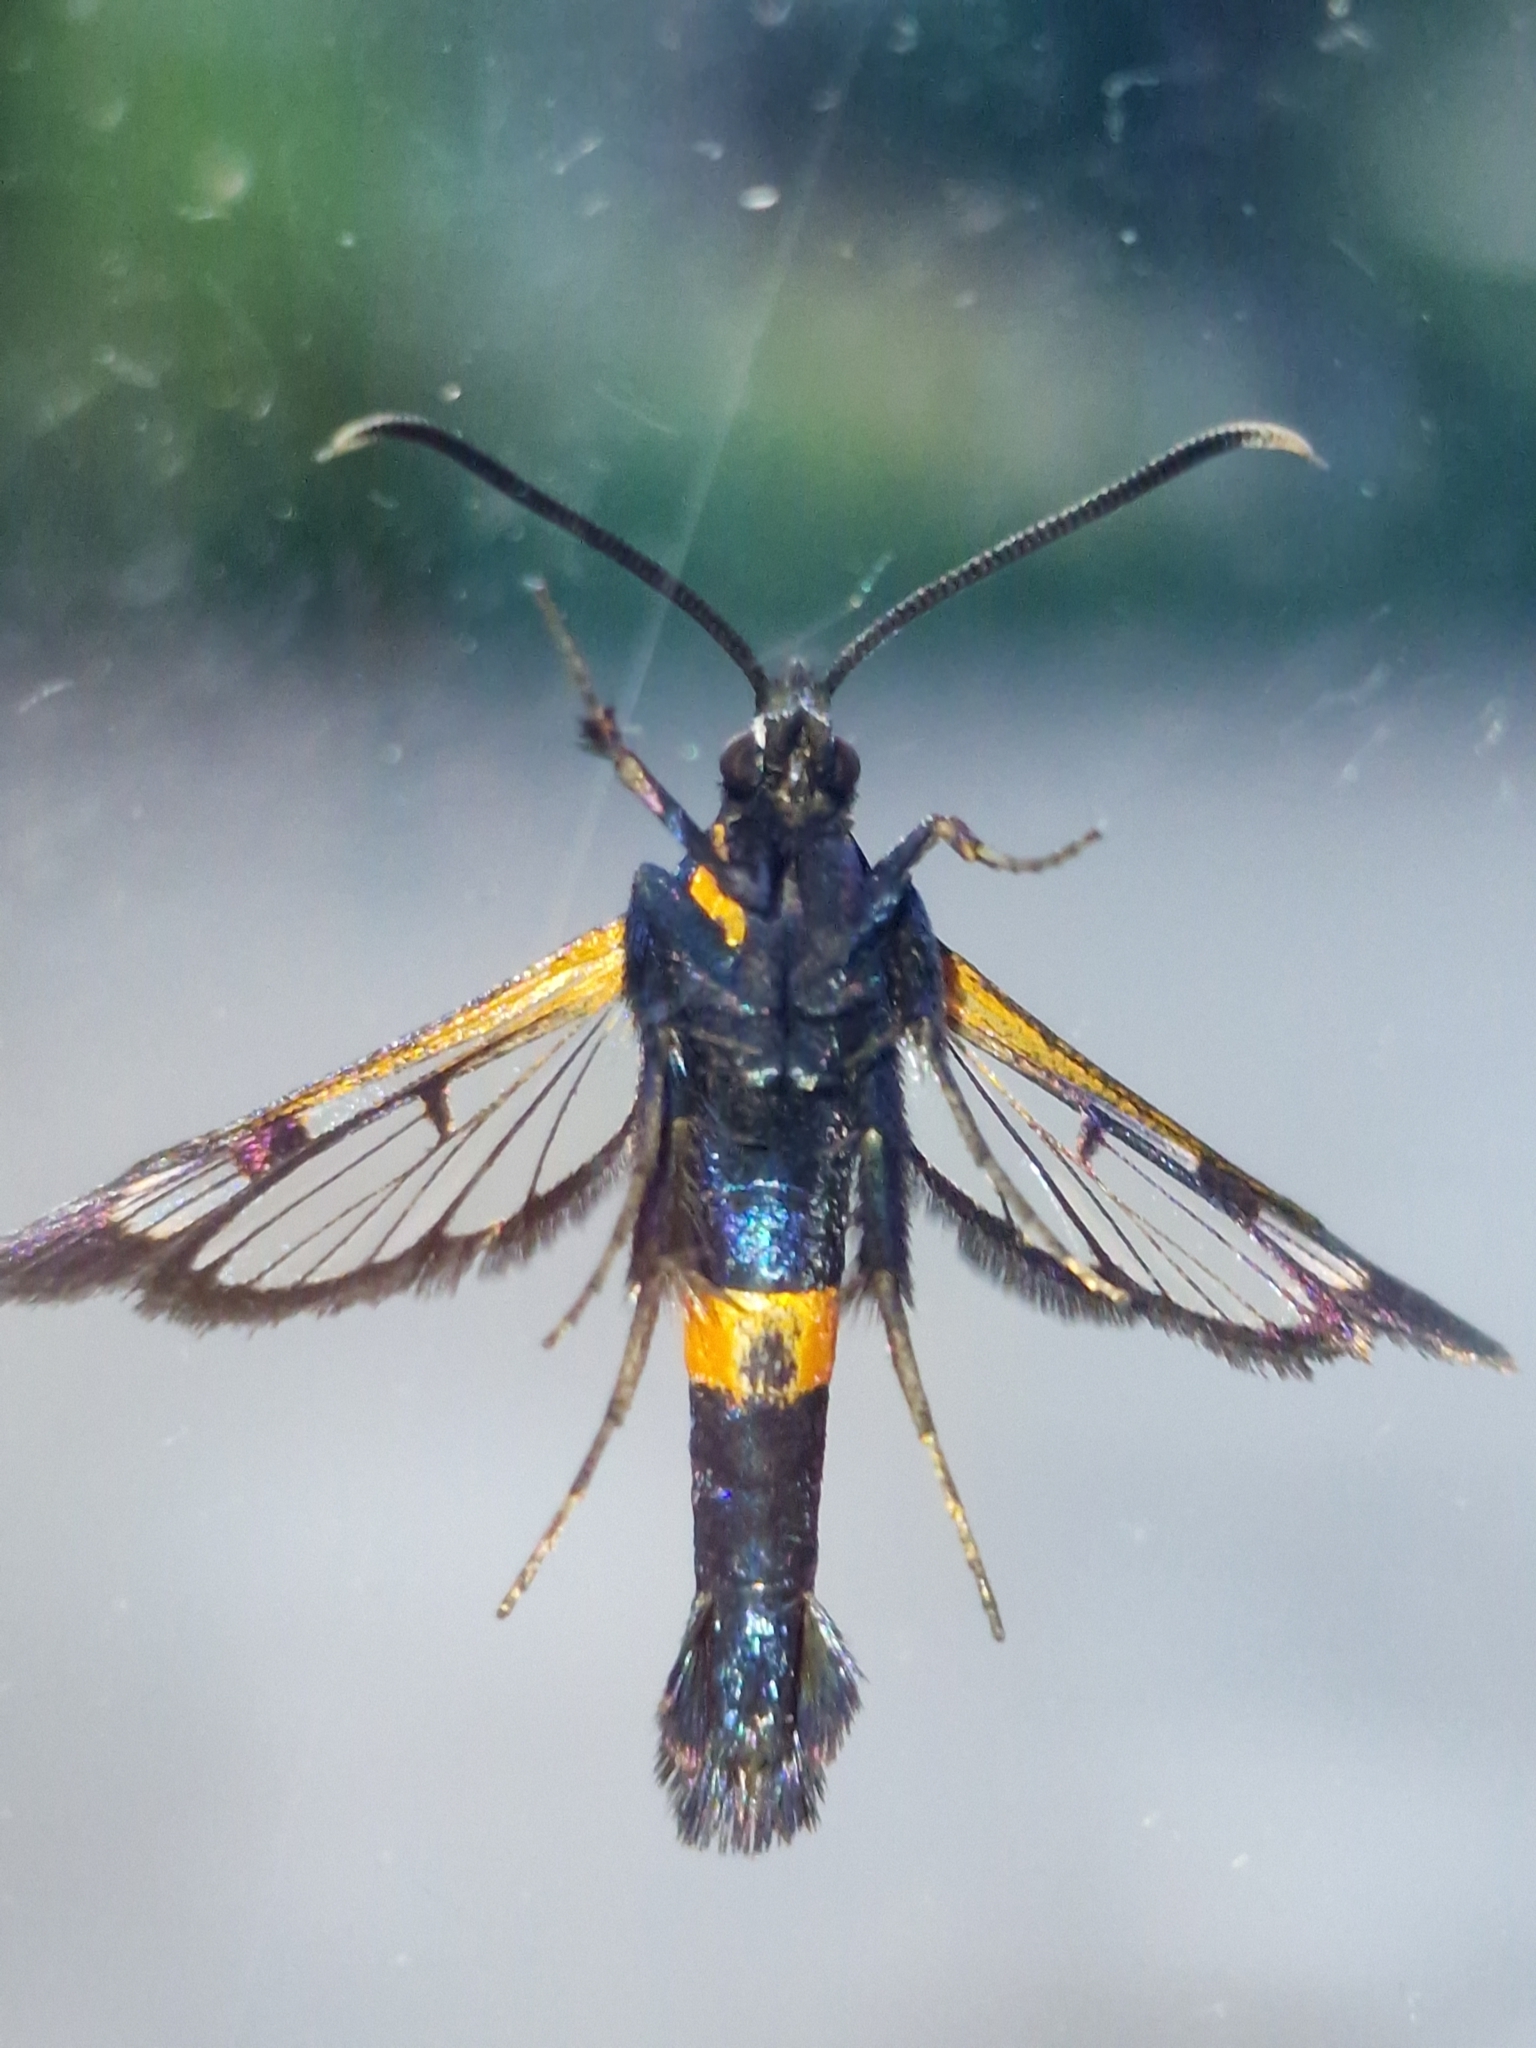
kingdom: Animalia
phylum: Arthropoda
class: Insecta
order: Lepidoptera
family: Sesiidae
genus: Synanthedon
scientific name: Synanthedon myopaeformis
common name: Red-belted clearwing
